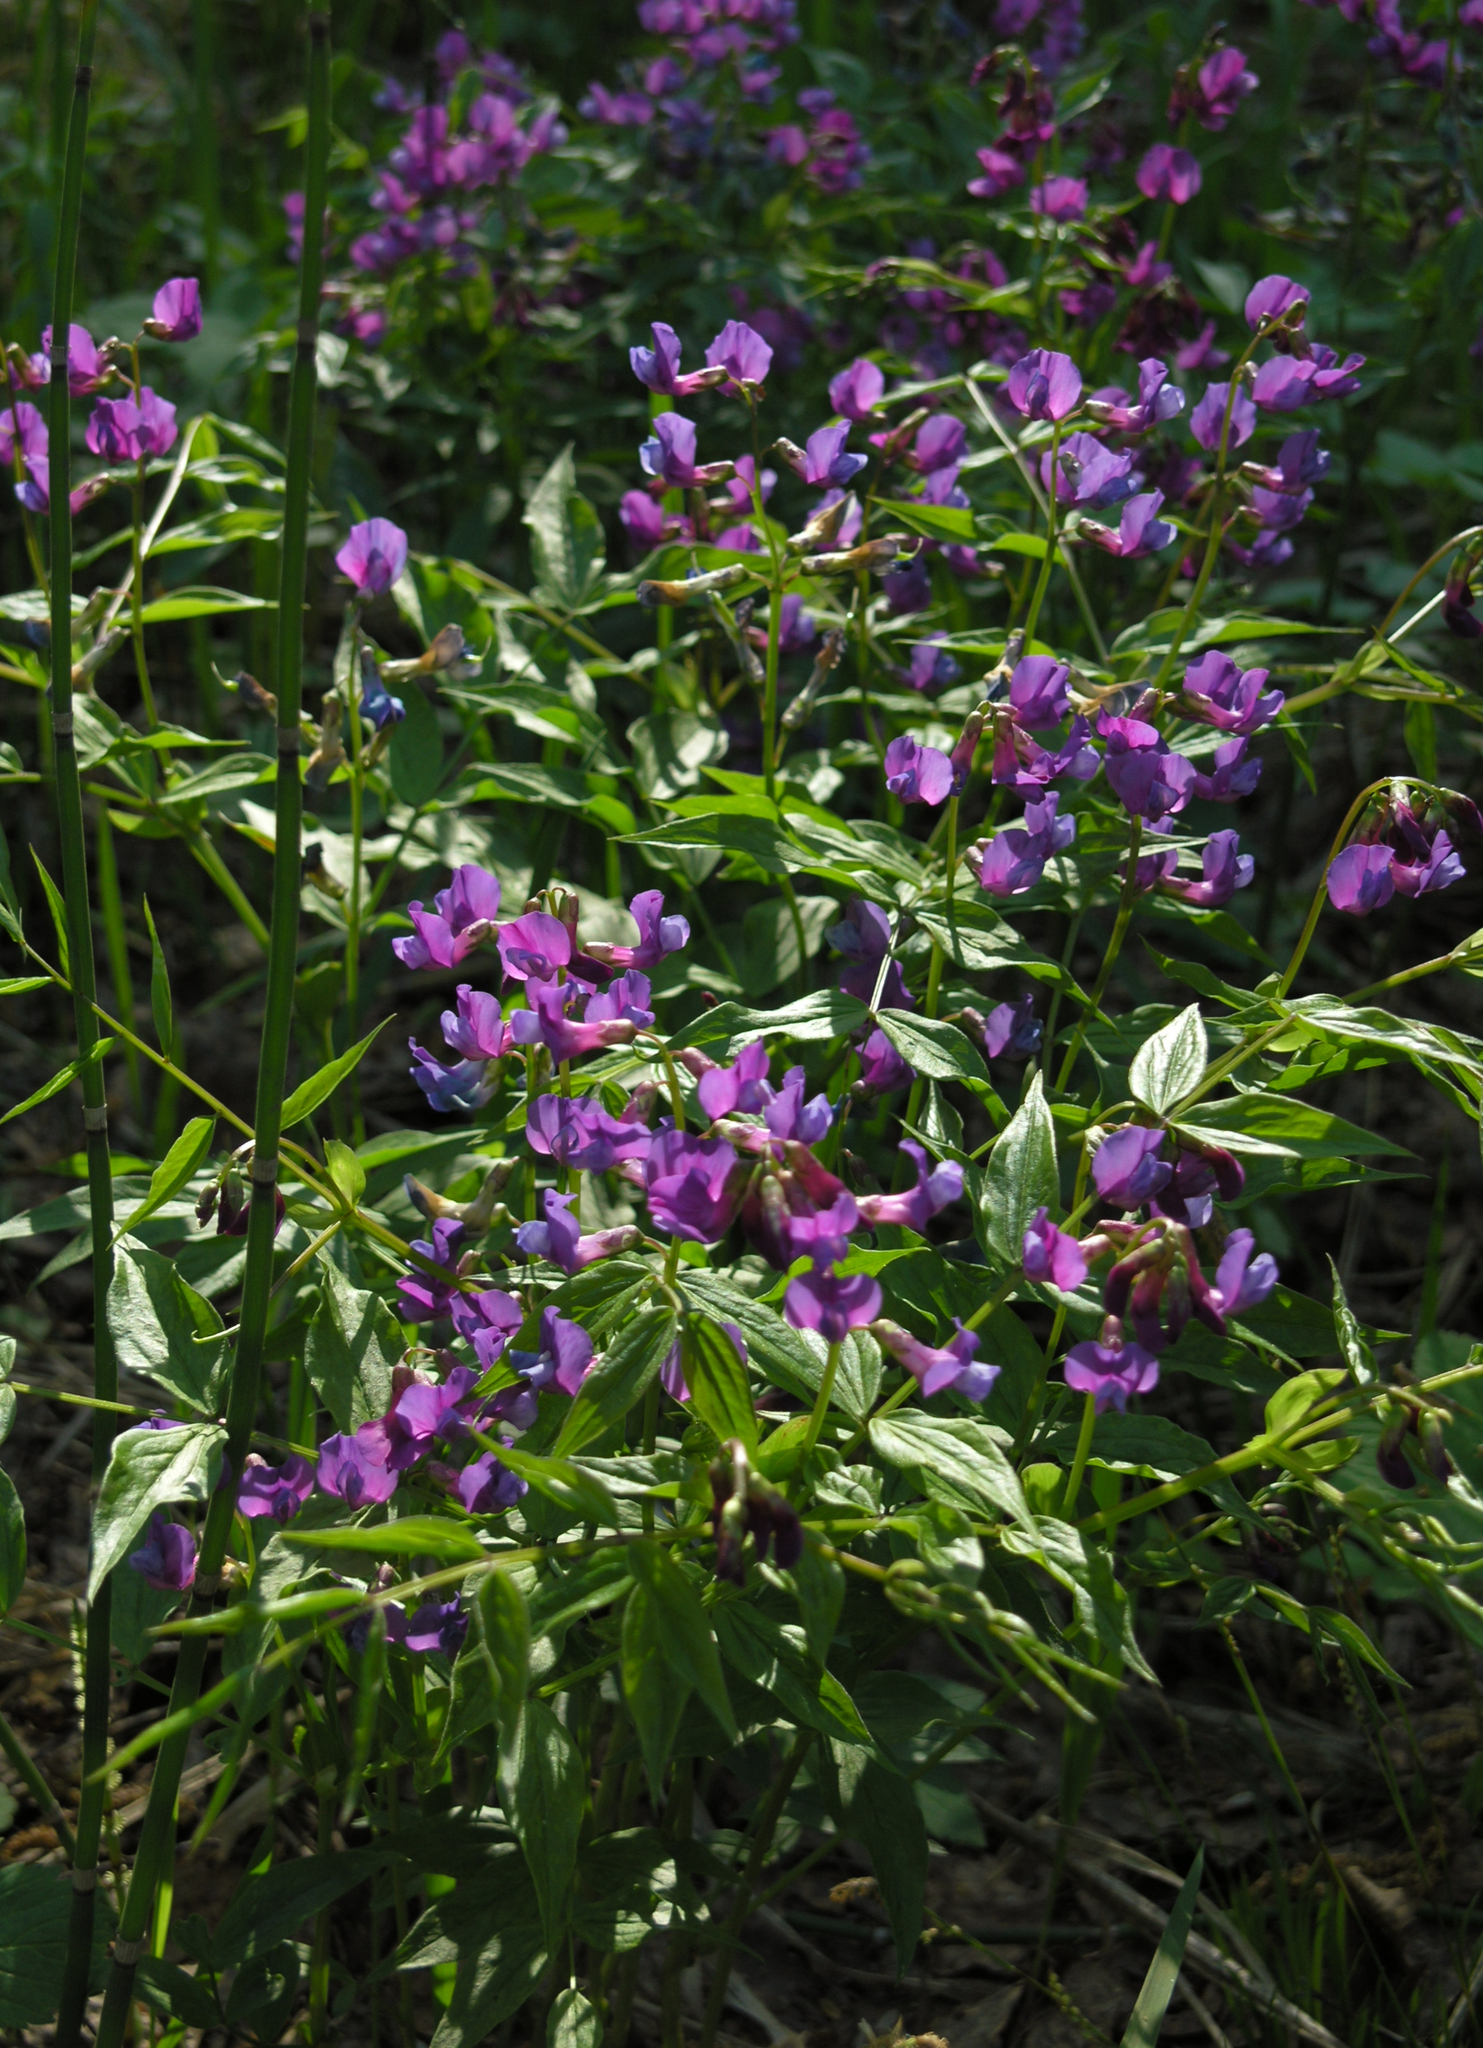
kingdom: Plantae
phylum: Tracheophyta
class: Magnoliopsida
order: Fabales
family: Fabaceae
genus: Lathyrus
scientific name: Lathyrus vernus
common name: Spring pea
